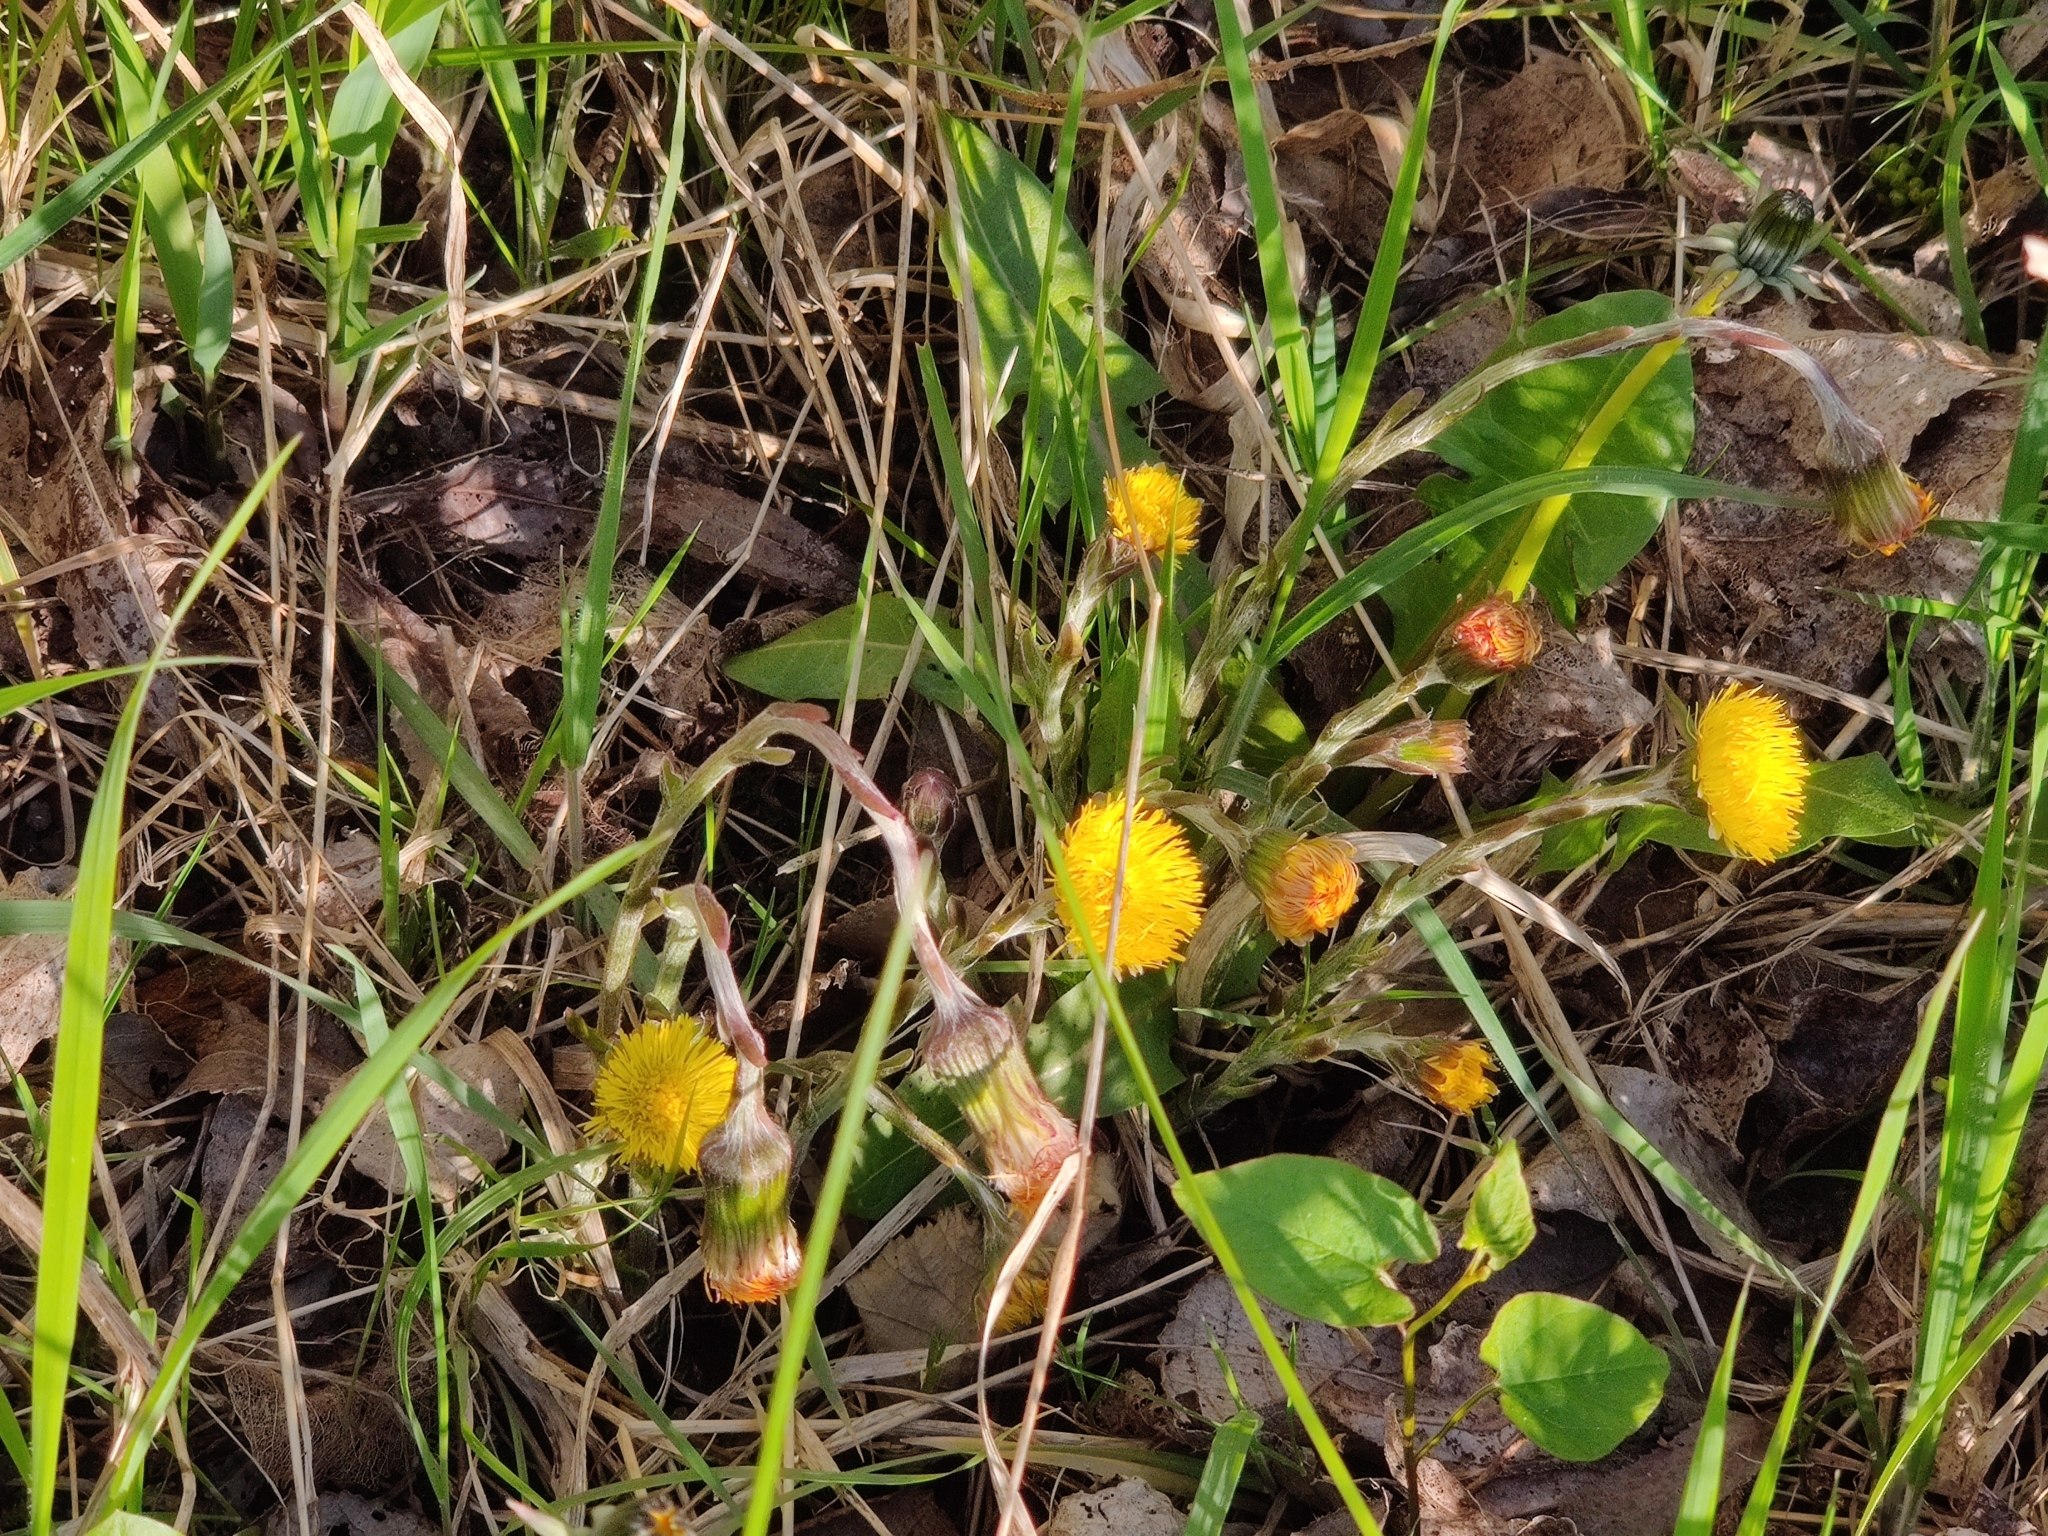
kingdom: Plantae
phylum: Tracheophyta
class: Magnoliopsida
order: Asterales
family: Asteraceae
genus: Tussilago
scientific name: Tussilago farfara
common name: Coltsfoot
